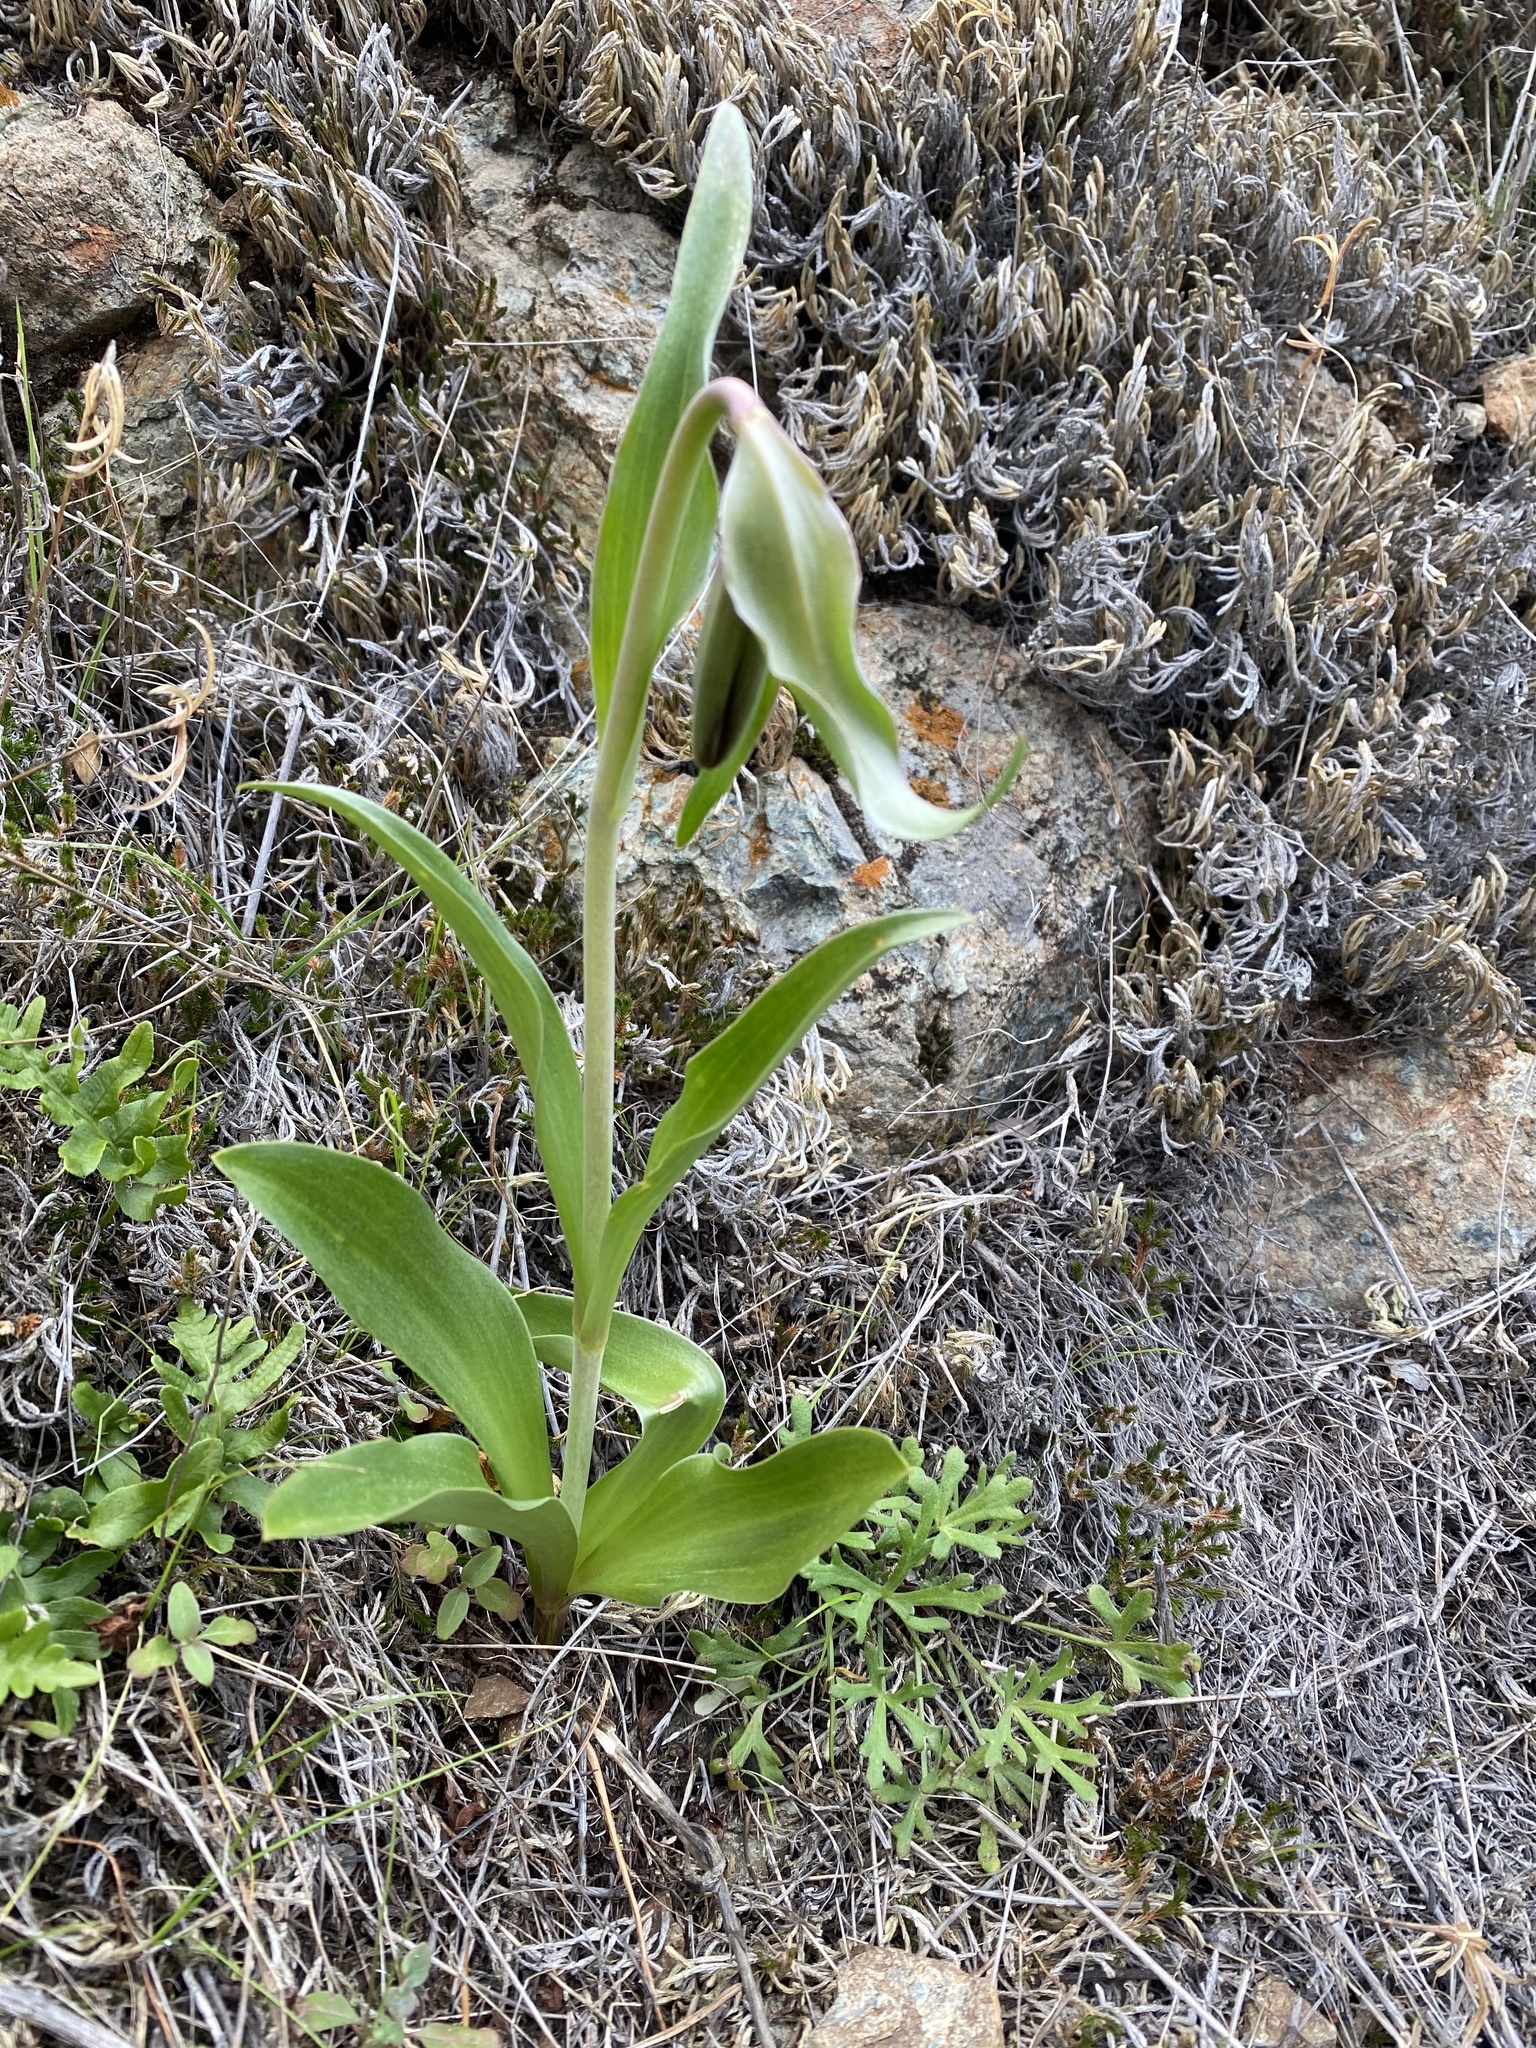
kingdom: Plantae
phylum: Tracheophyta
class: Liliopsida
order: Liliales
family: Liliaceae
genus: Fritillaria
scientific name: Fritillaria biflora
